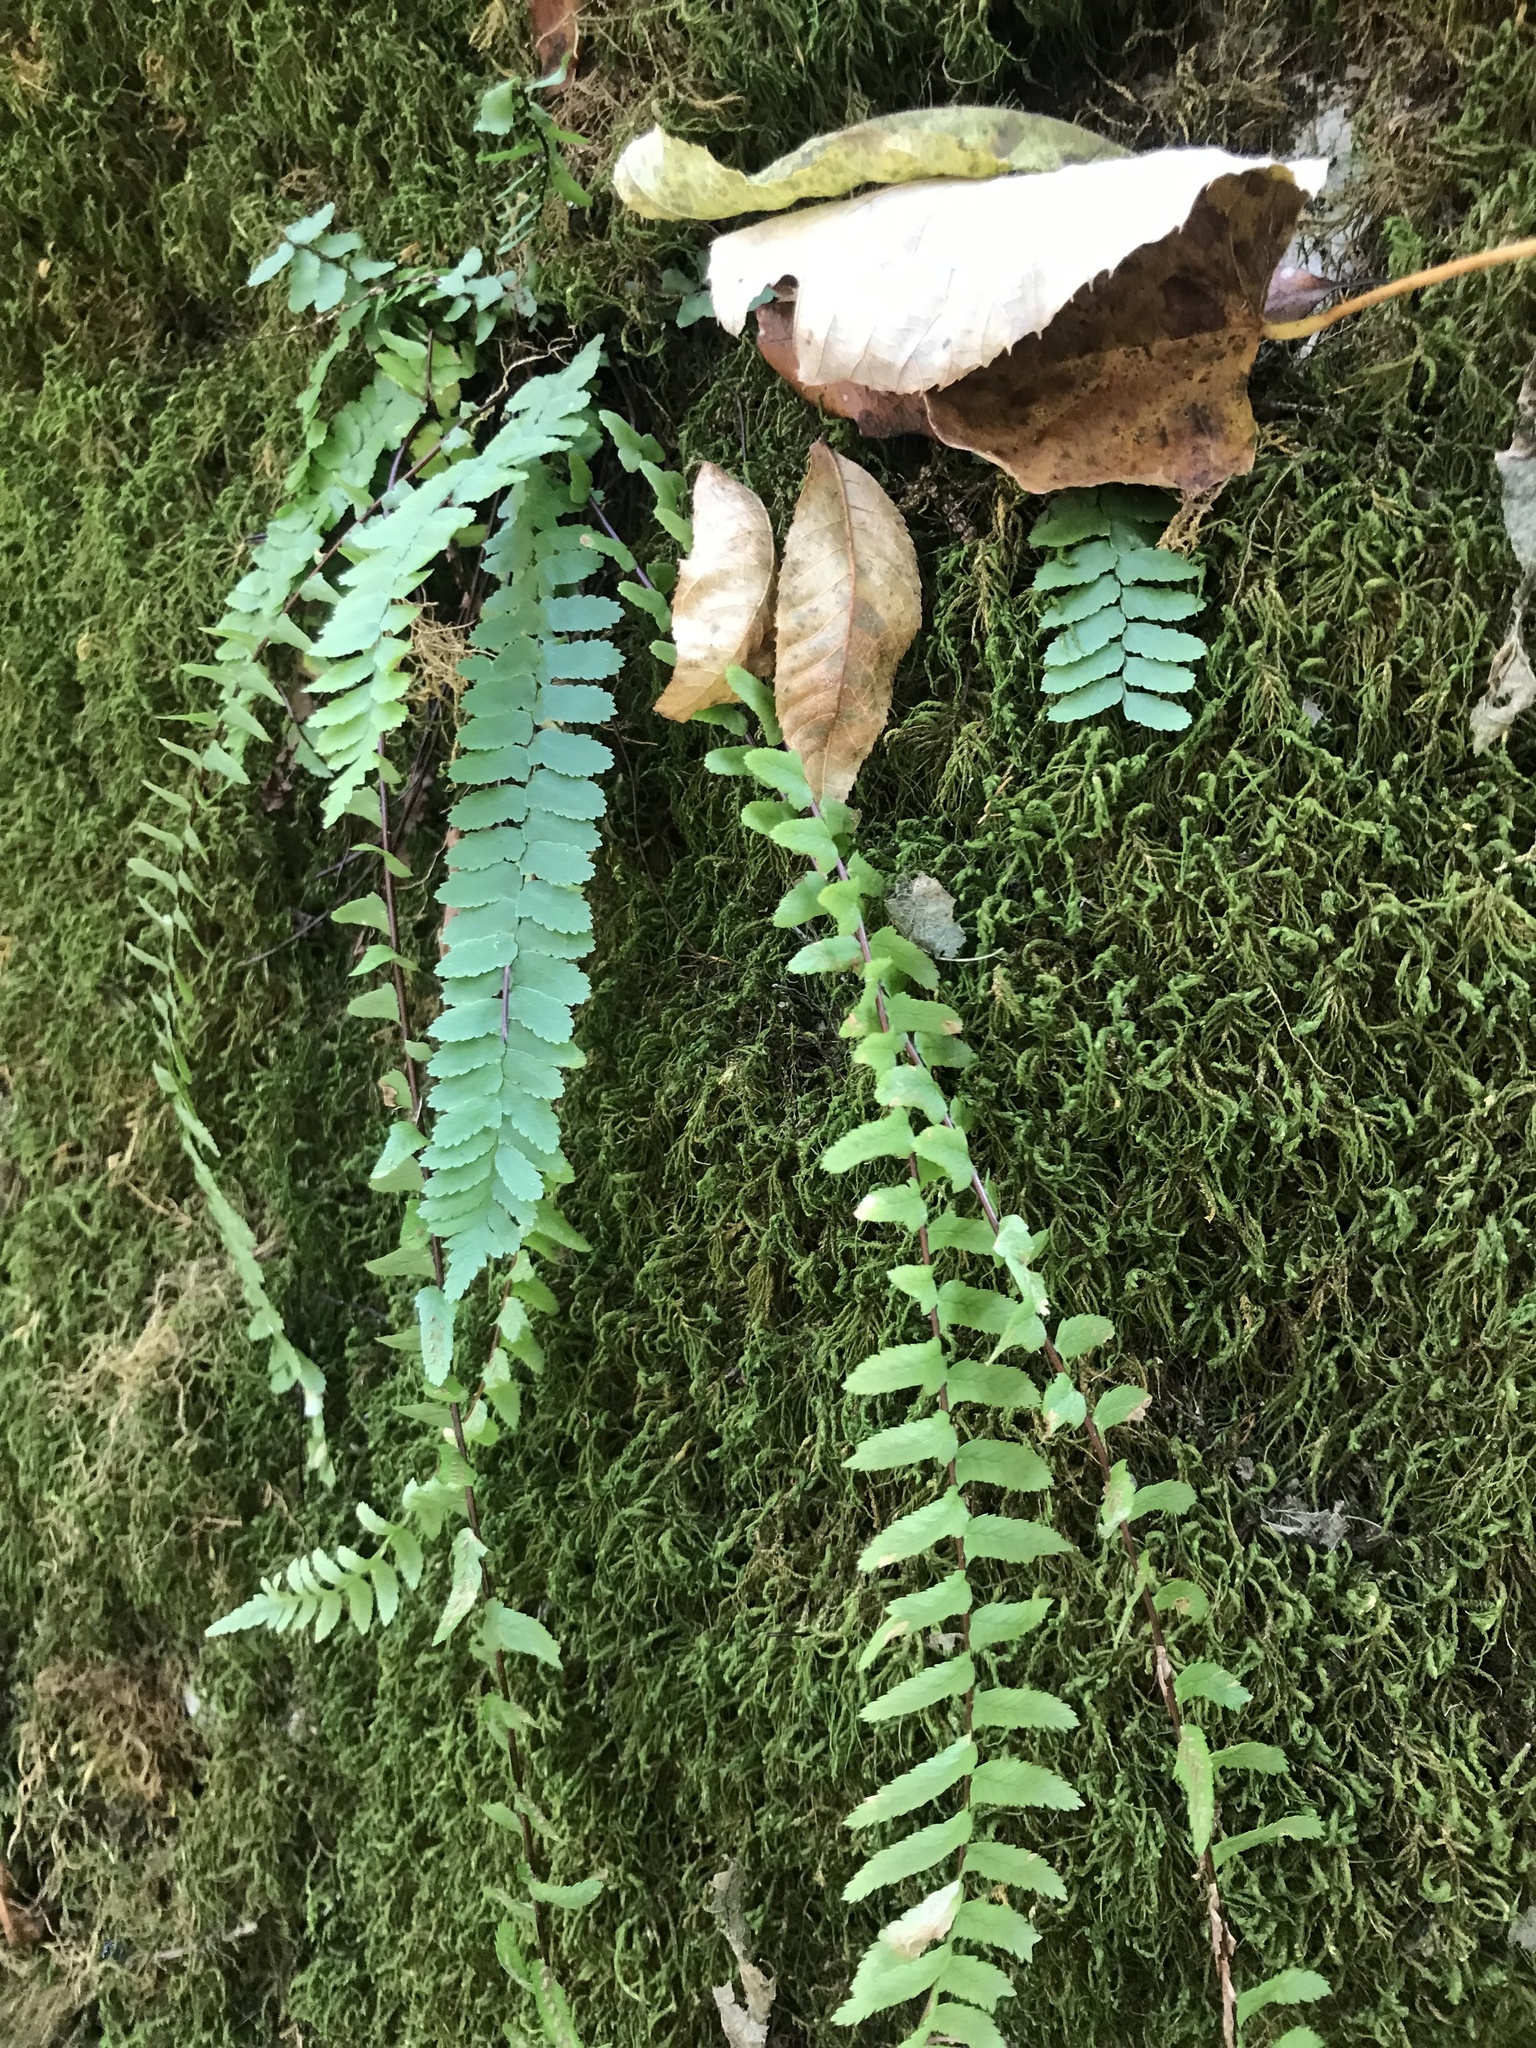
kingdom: Plantae
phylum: Tracheophyta
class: Polypodiopsida
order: Polypodiales
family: Aspleniaceae
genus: Asplenium
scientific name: Asplenium platyneuron
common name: Ebony spleenwort
